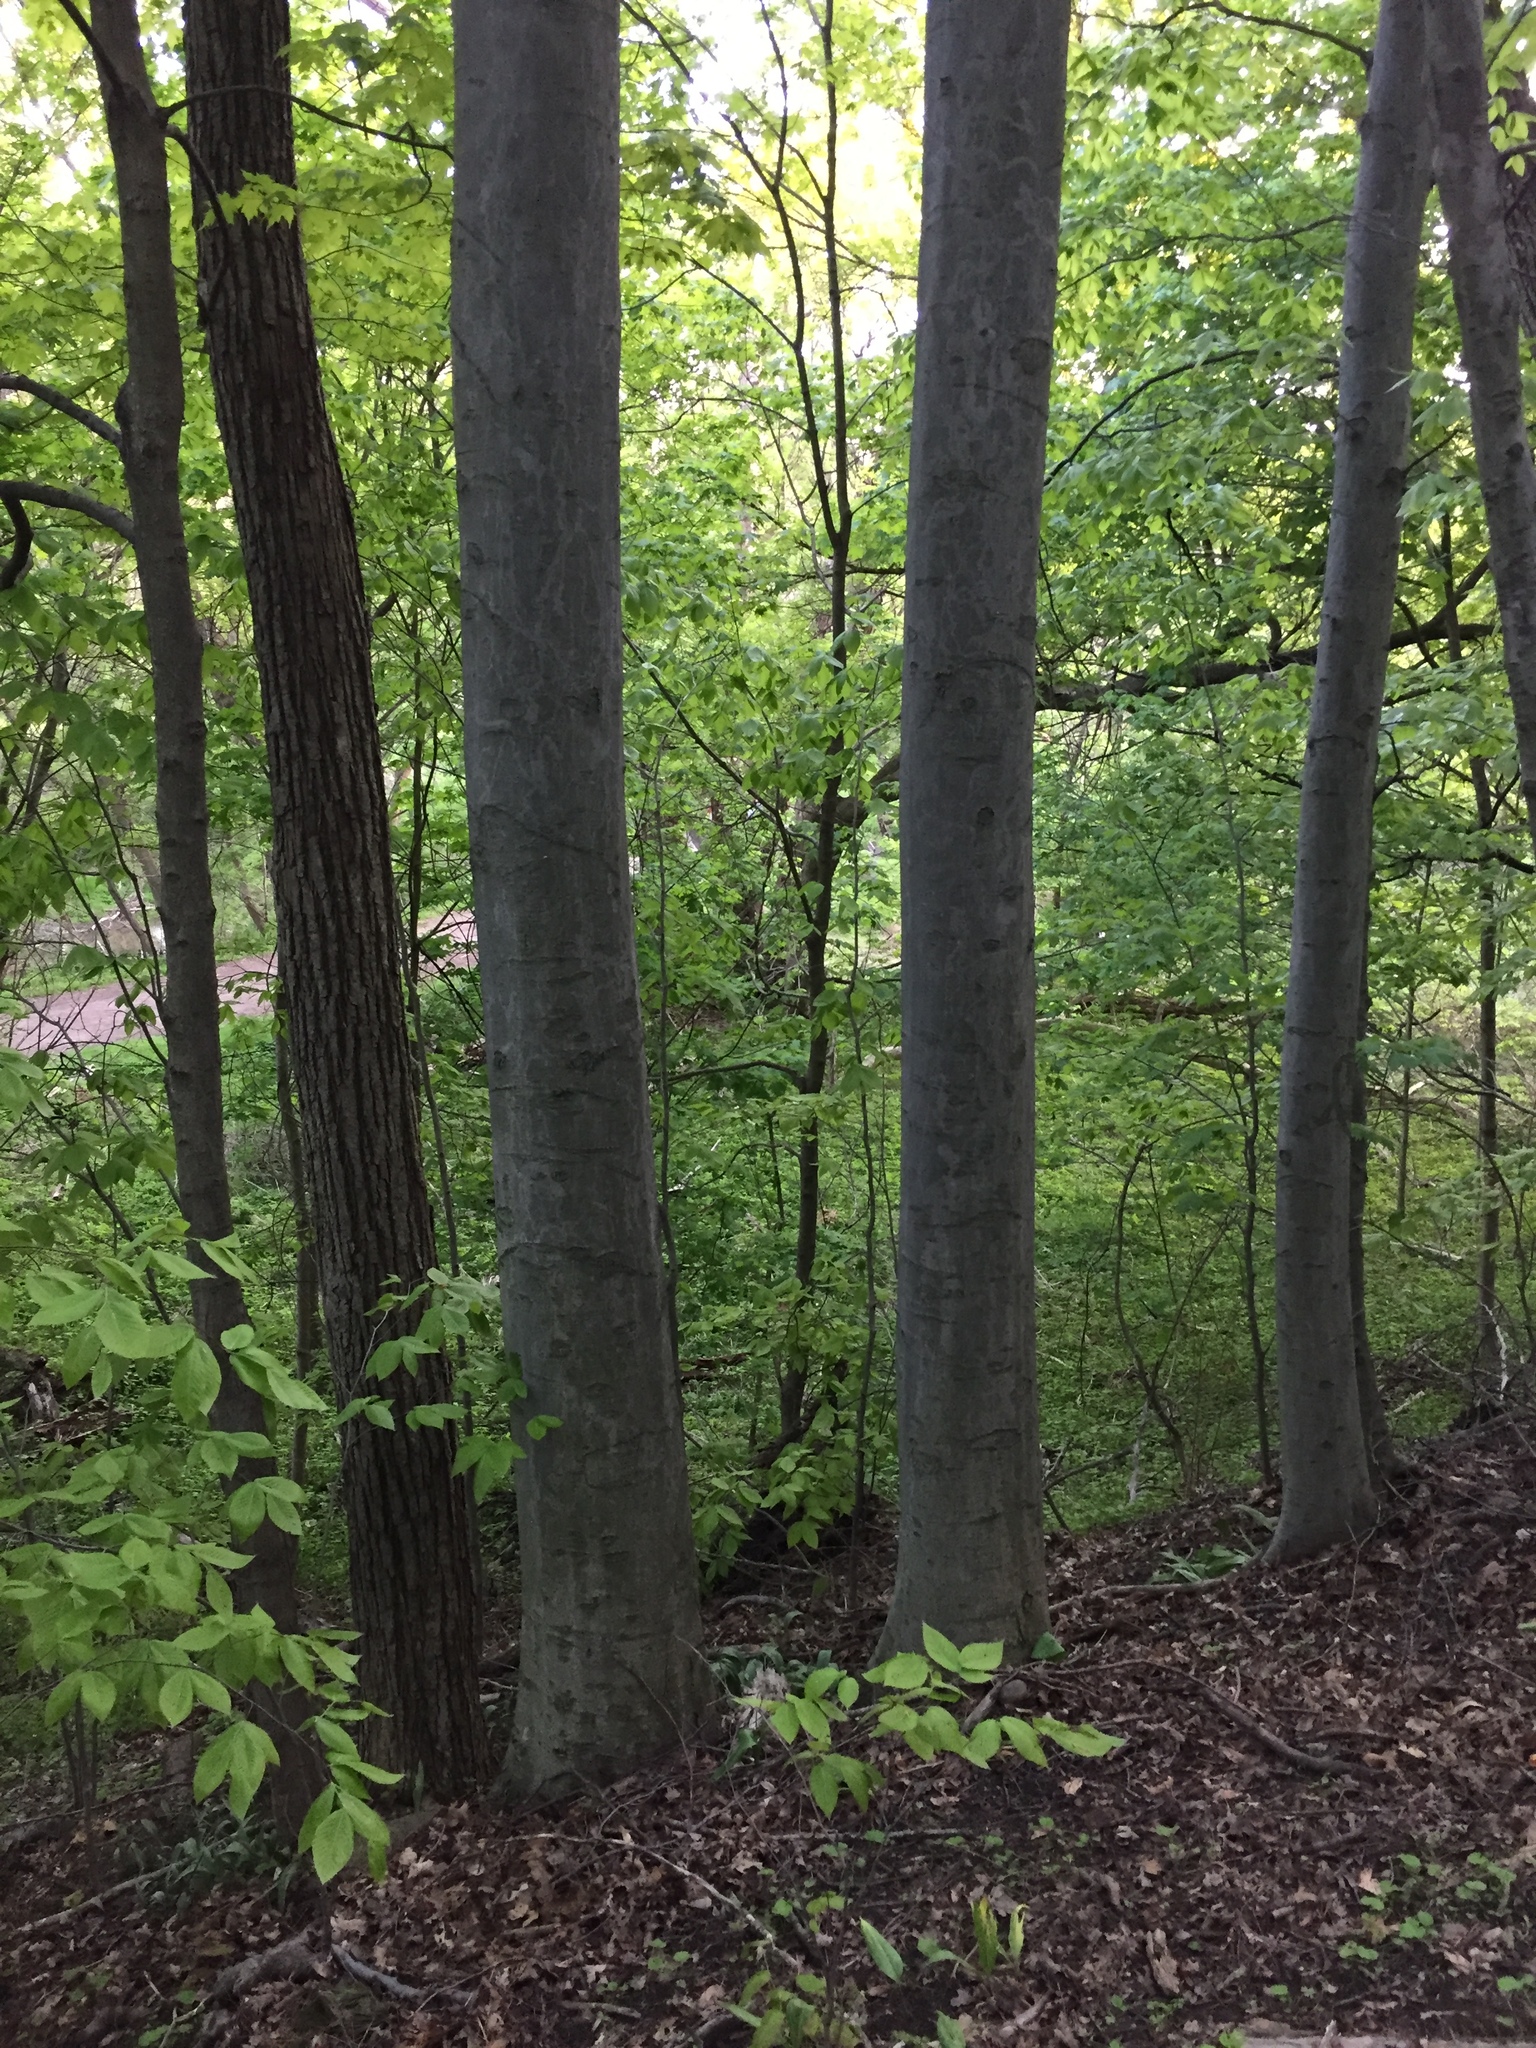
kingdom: Plantae
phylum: Tracheophyta
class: Magnoliopsida
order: Fagales
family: Fagaceae
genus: Fagus
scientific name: Fagus grandifolia
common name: American beech
